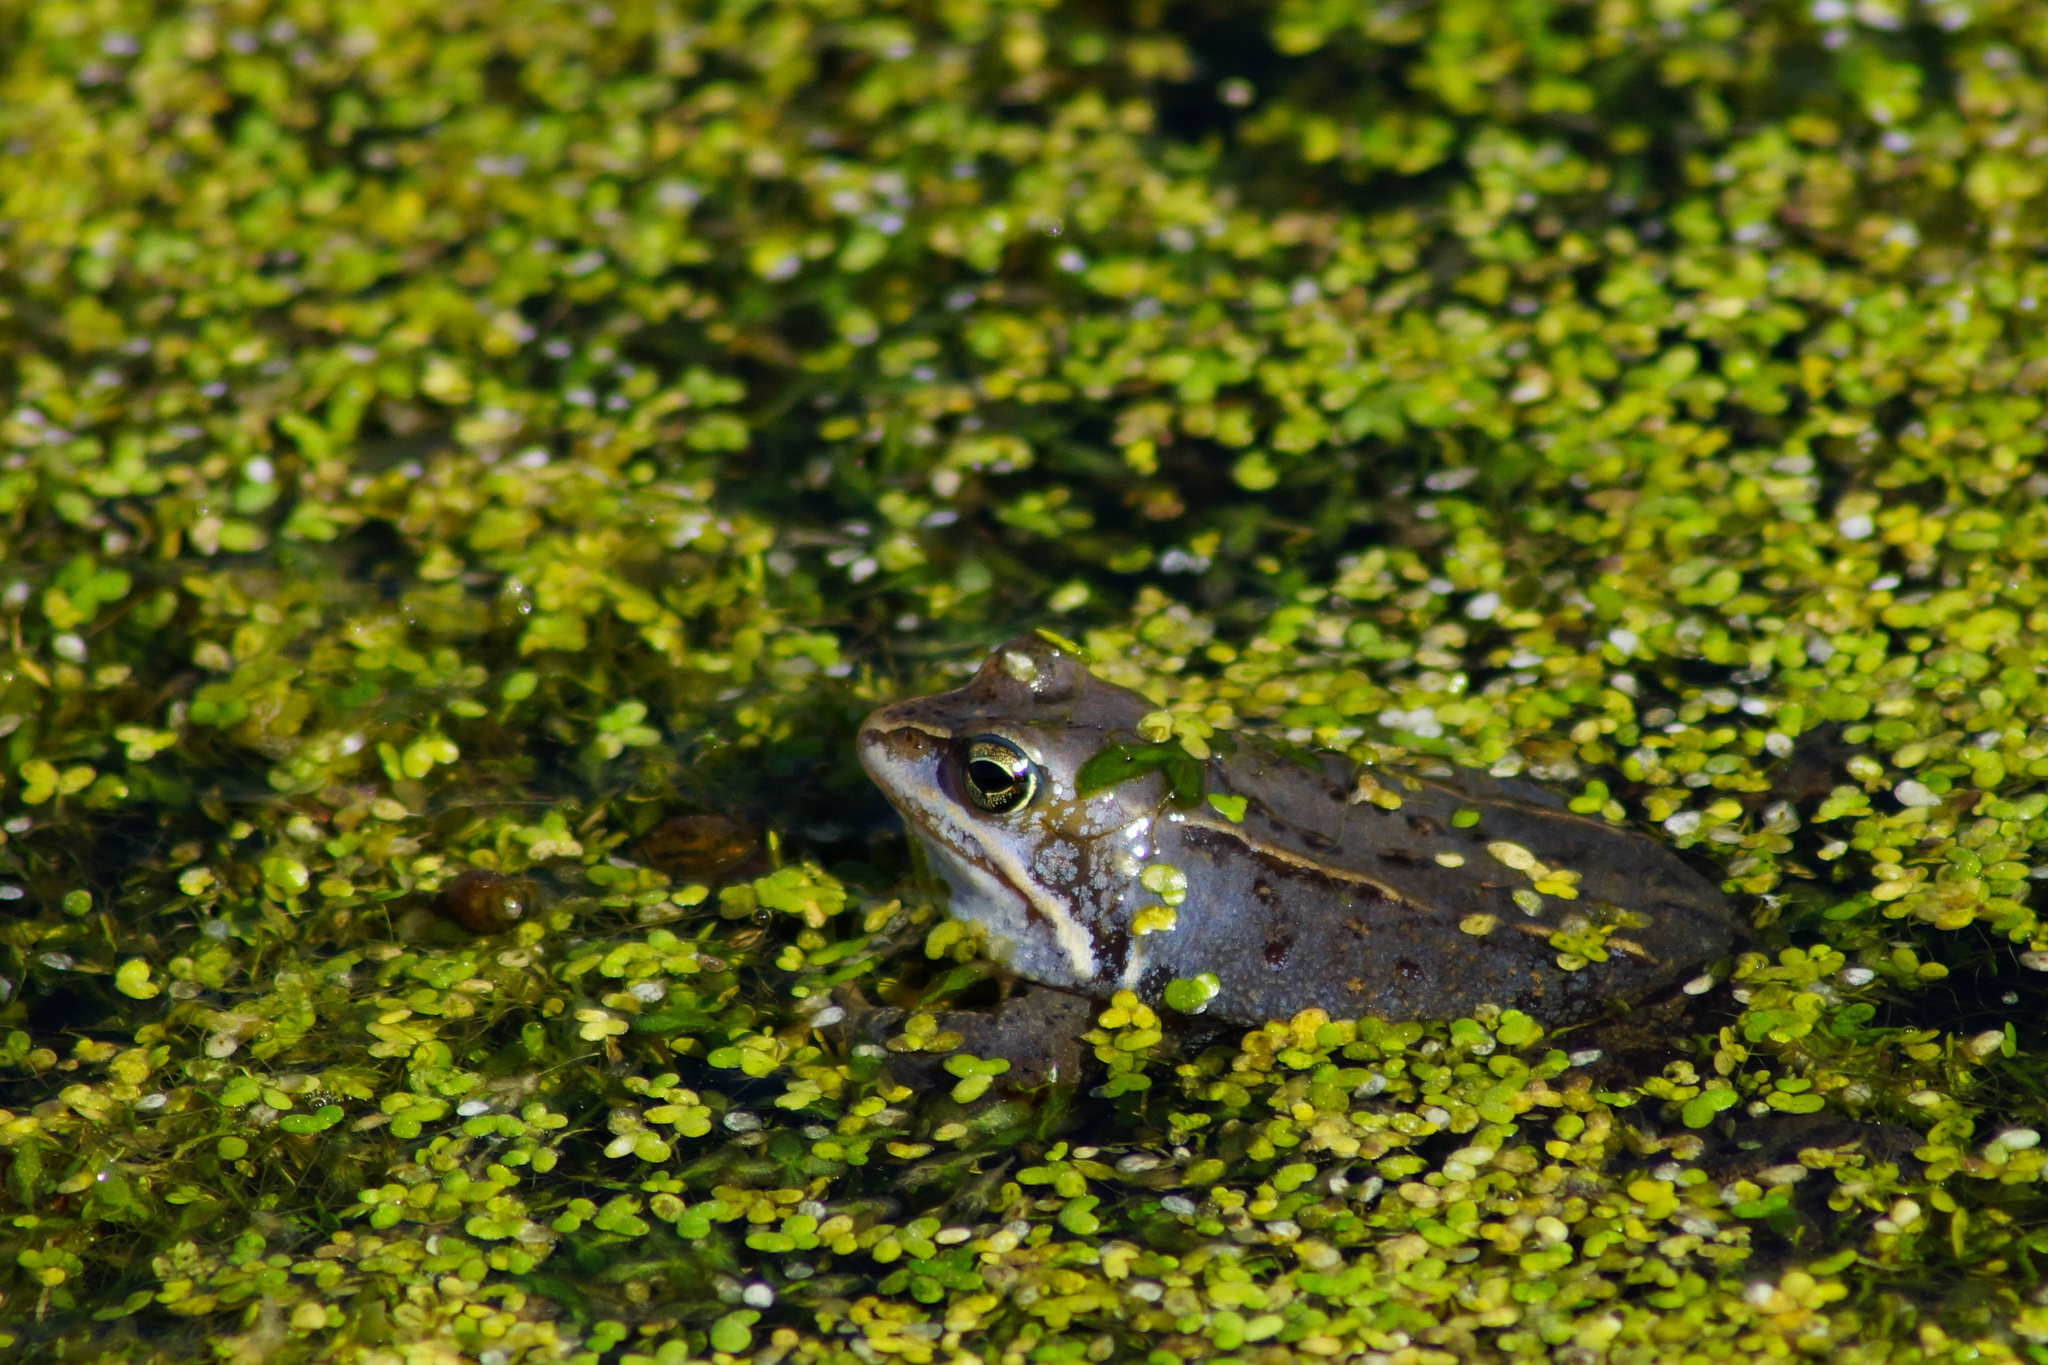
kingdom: Animalia
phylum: Chordata
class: Amphibia
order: Anura
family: Ranidae
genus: Rana
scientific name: Rana arvalis
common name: Moor frog
